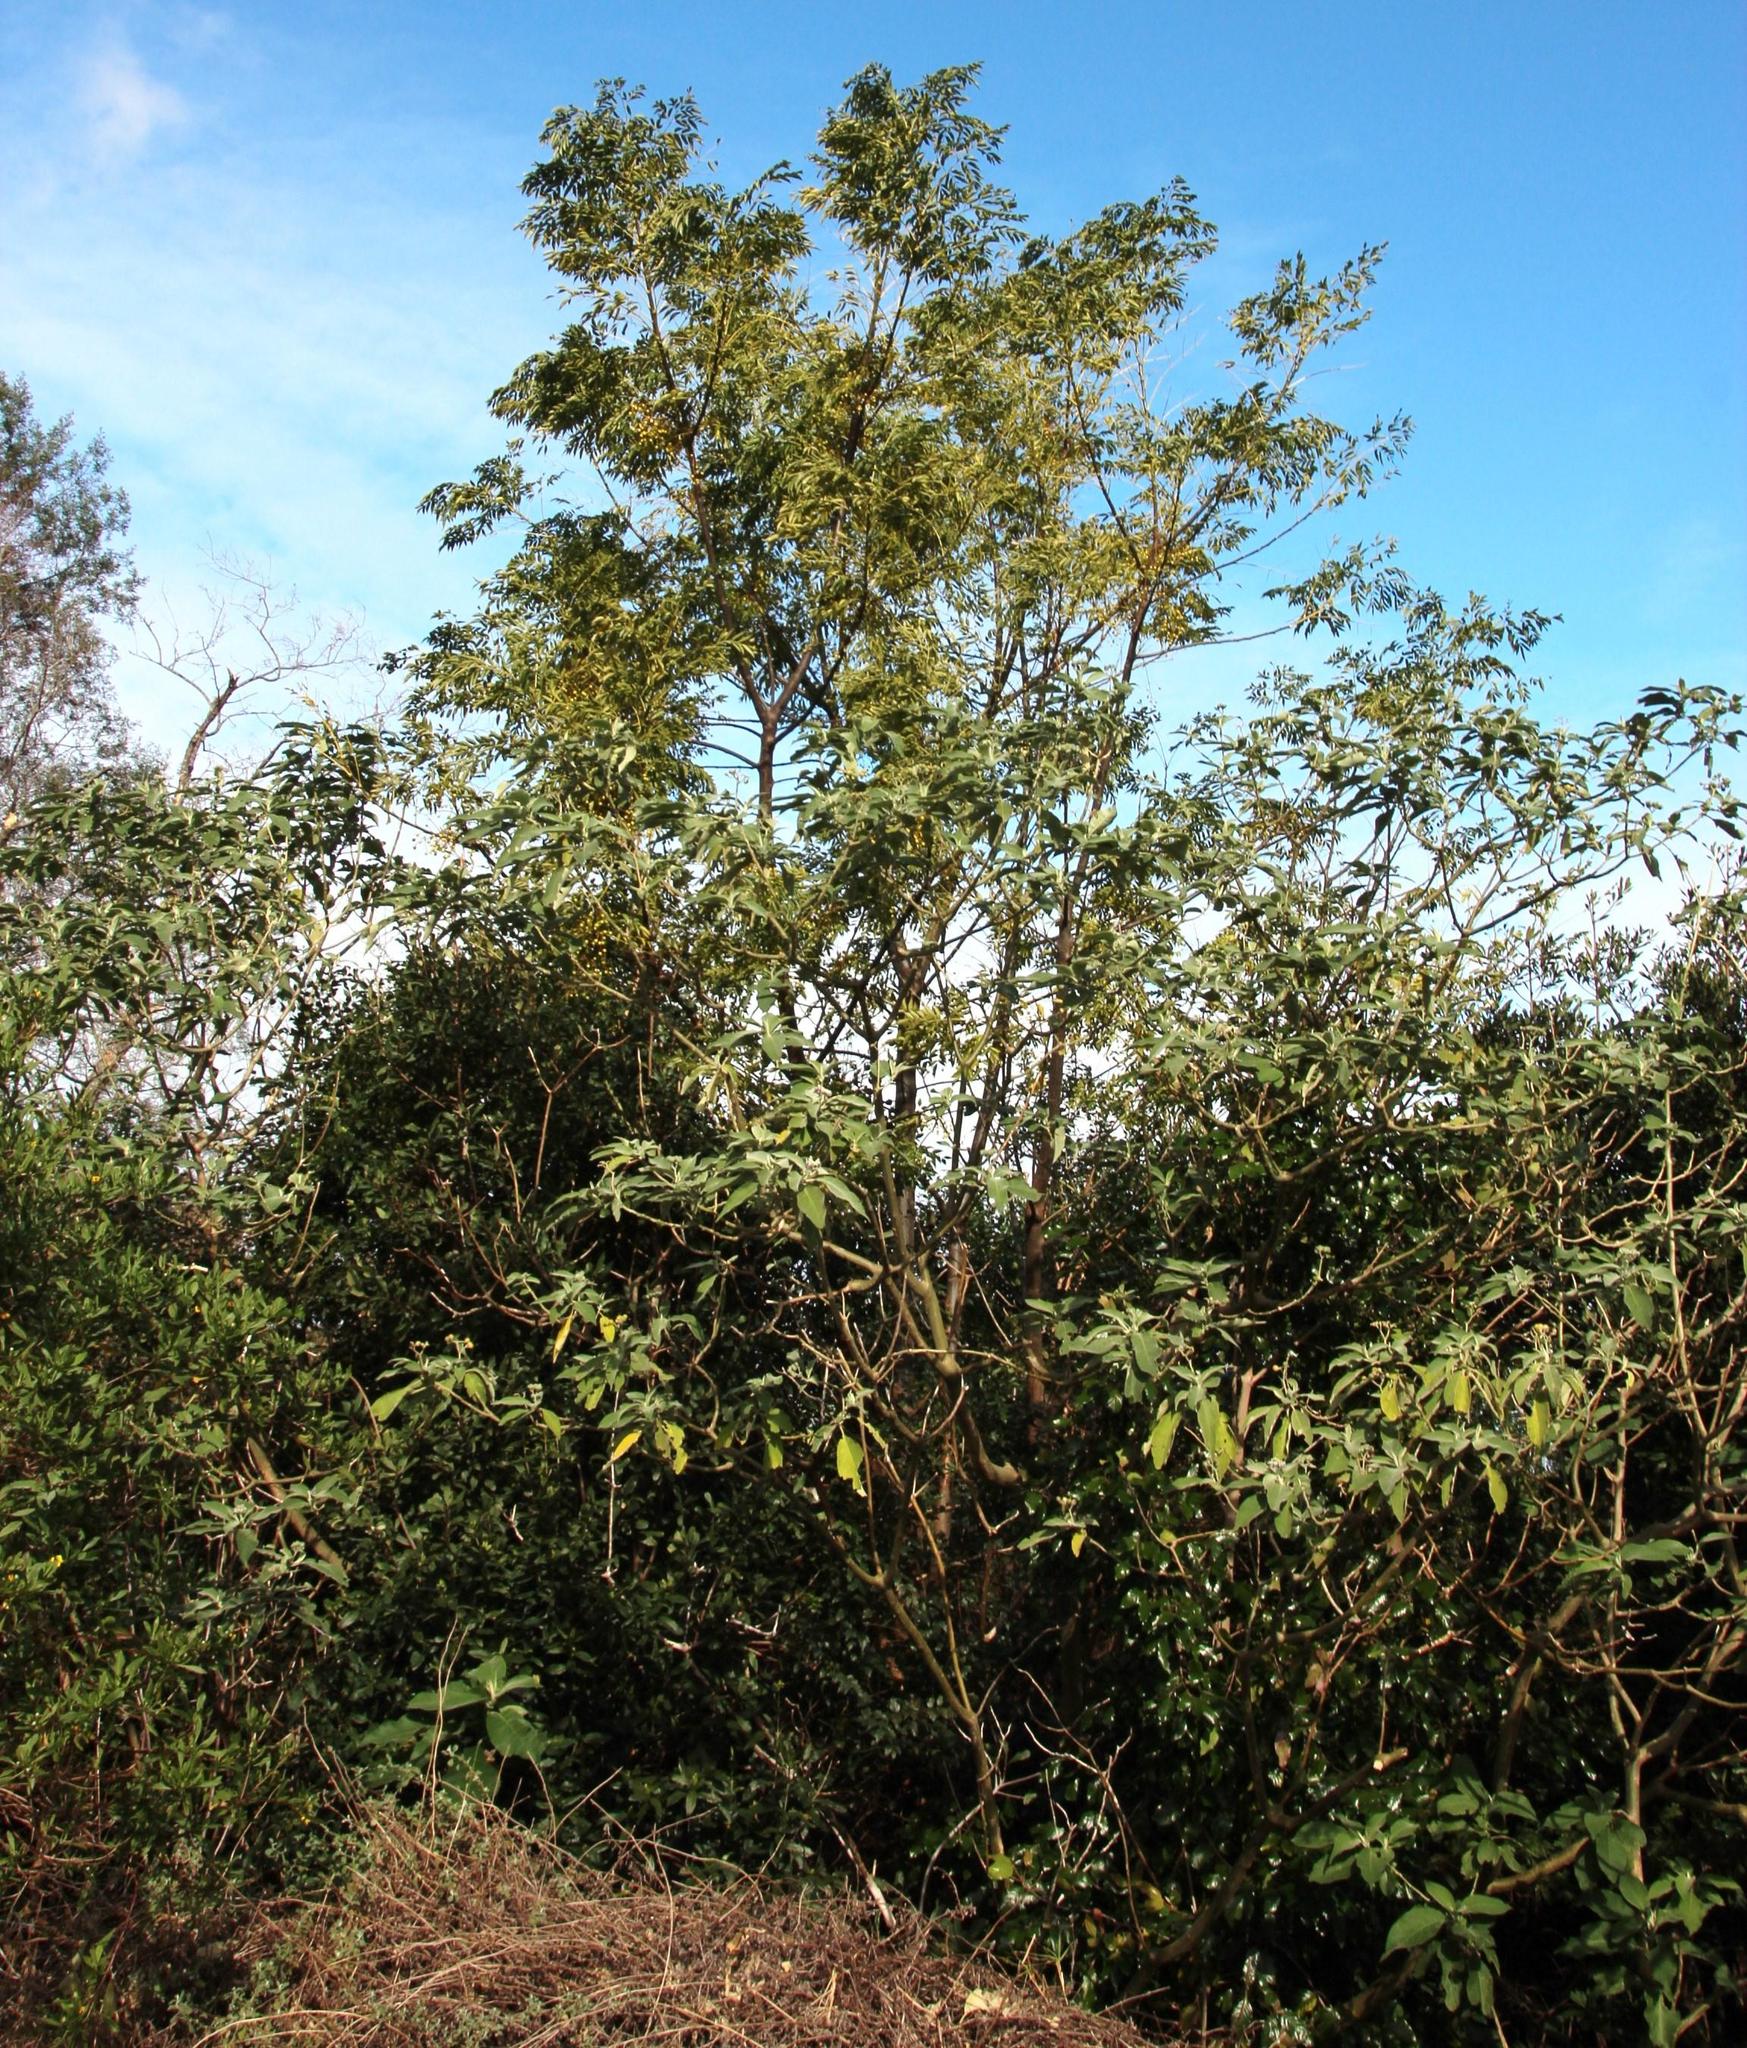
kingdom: Plantae
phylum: Tracheophyta
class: Magnoliopsida
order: Solanales
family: Solanaceae
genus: Solanum
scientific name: Solanum mauritianum
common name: Earleaf nightshade
